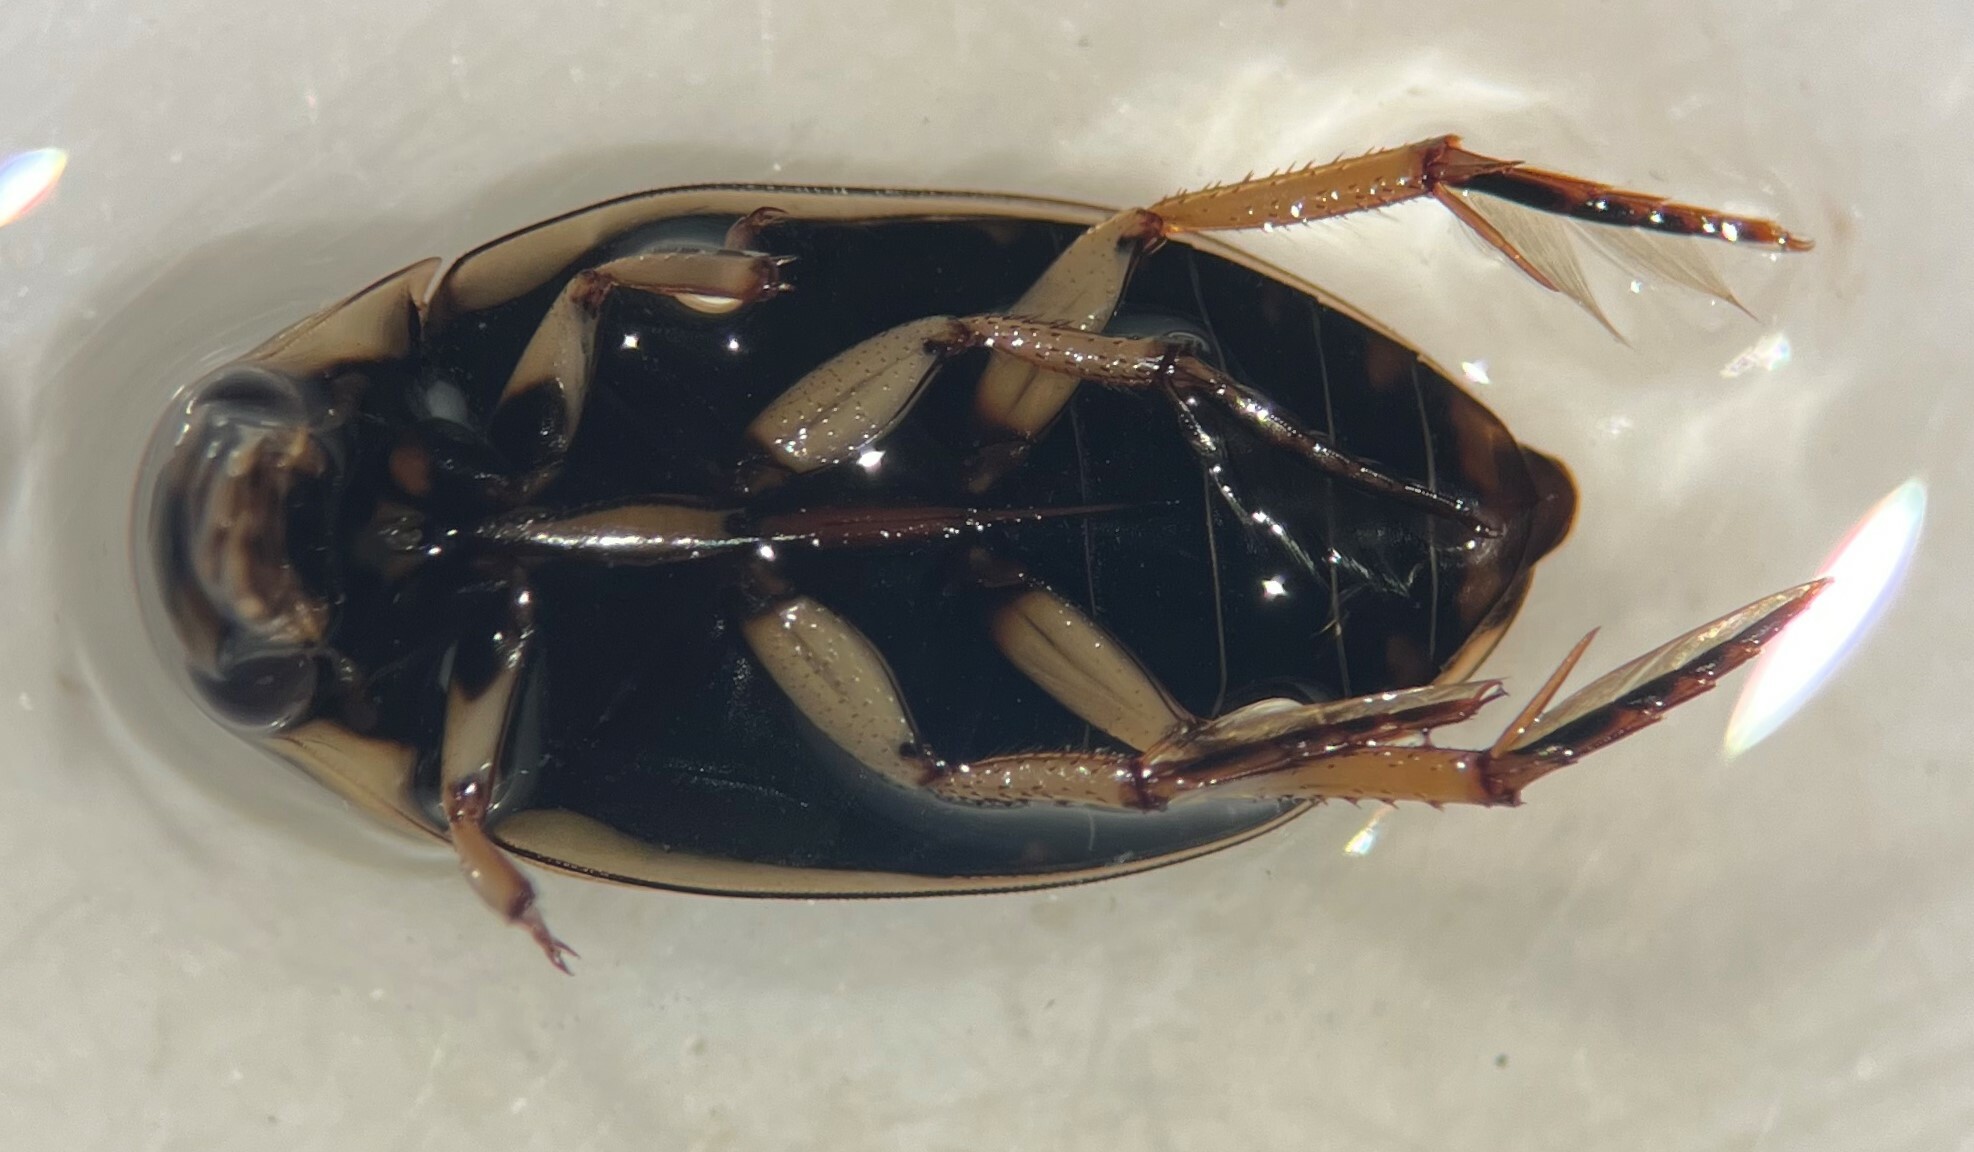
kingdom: Animalia
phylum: Arthropoda
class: Insecta
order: Coleoptera
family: Hydrophilidae
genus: Tropisternus
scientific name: Tropisternus lateralis
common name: Lateral-banded water scavenger beetle
